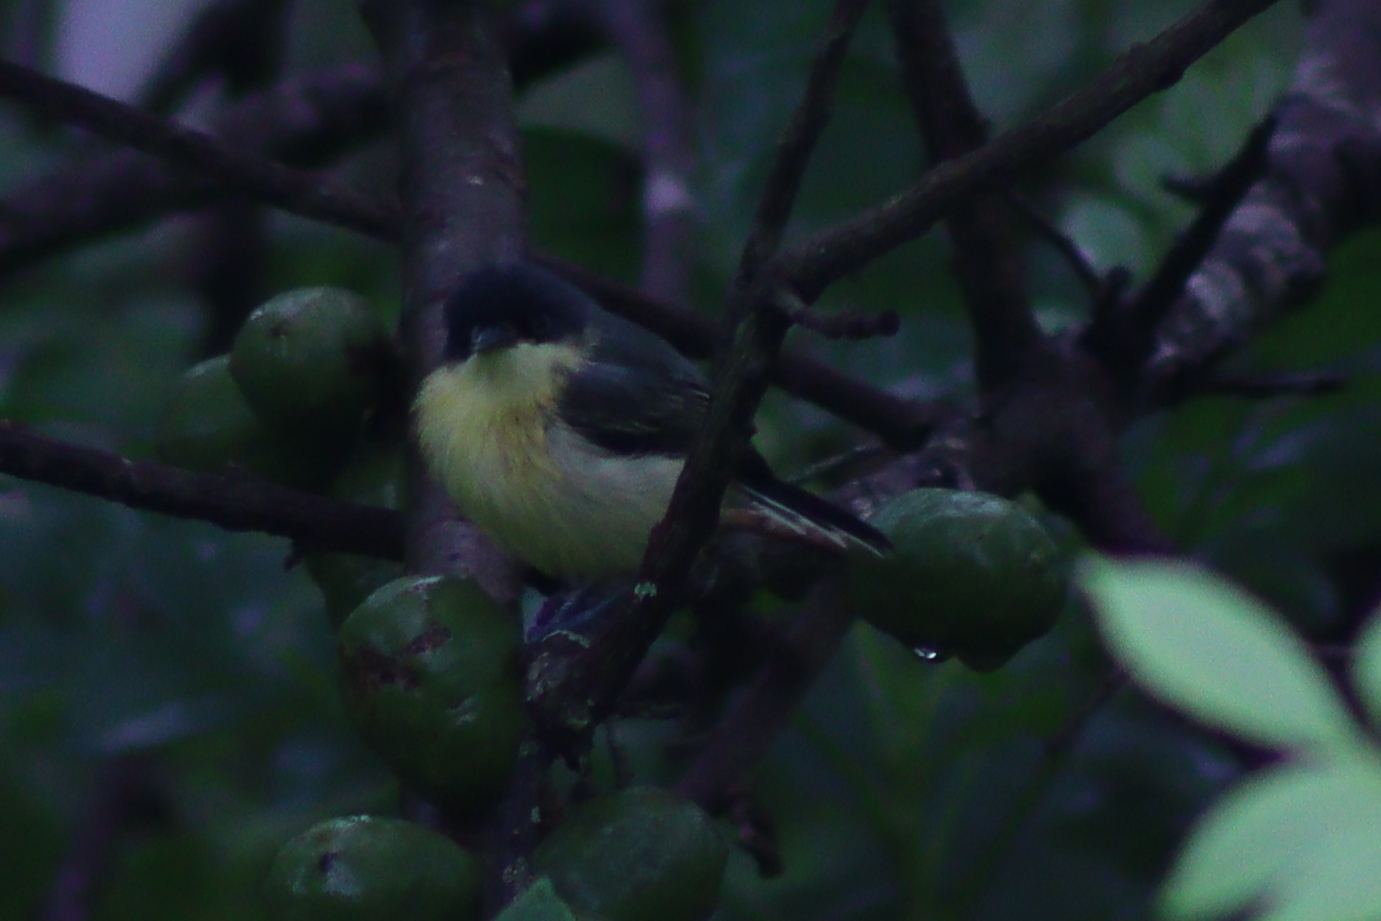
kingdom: Animalia
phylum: Chordata
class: Aves
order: Passeriformes
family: Tyrannidae
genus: Todirostrum
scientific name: Todirostrum cinereum
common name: Common tody-flycatcher
